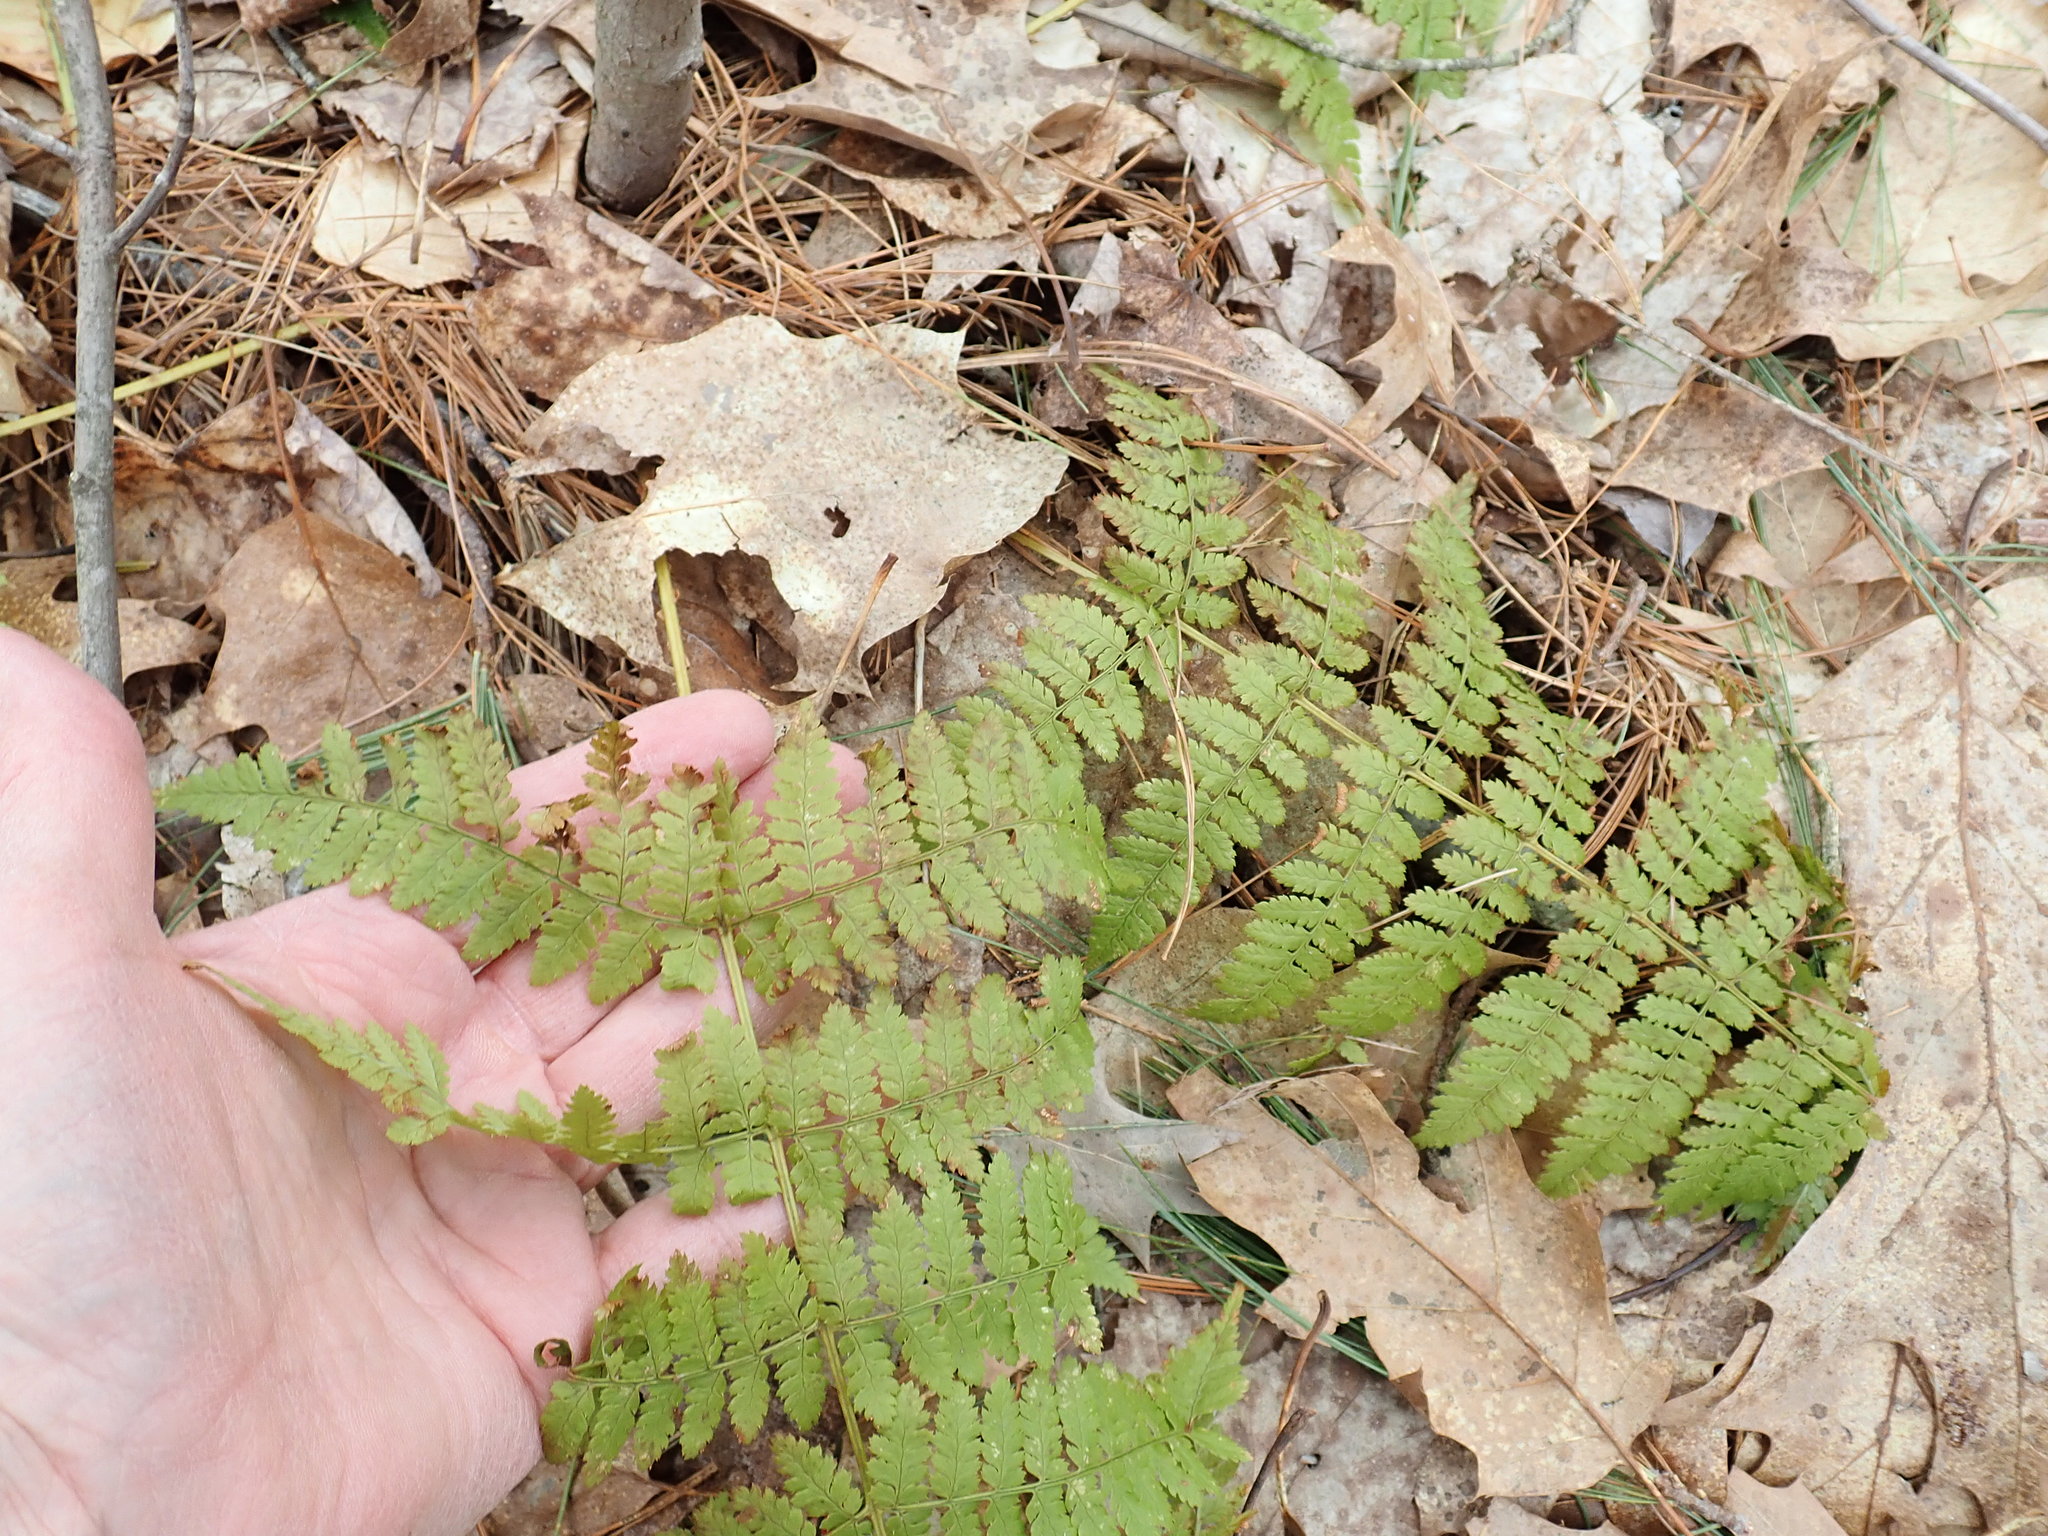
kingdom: Plantae
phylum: Tracheophyta
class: Polypodiopsida
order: Polypodiales
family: Dryopteridaceae
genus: Dryopteris
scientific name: Dryopteris intermedia
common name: Evergreen wood fern
